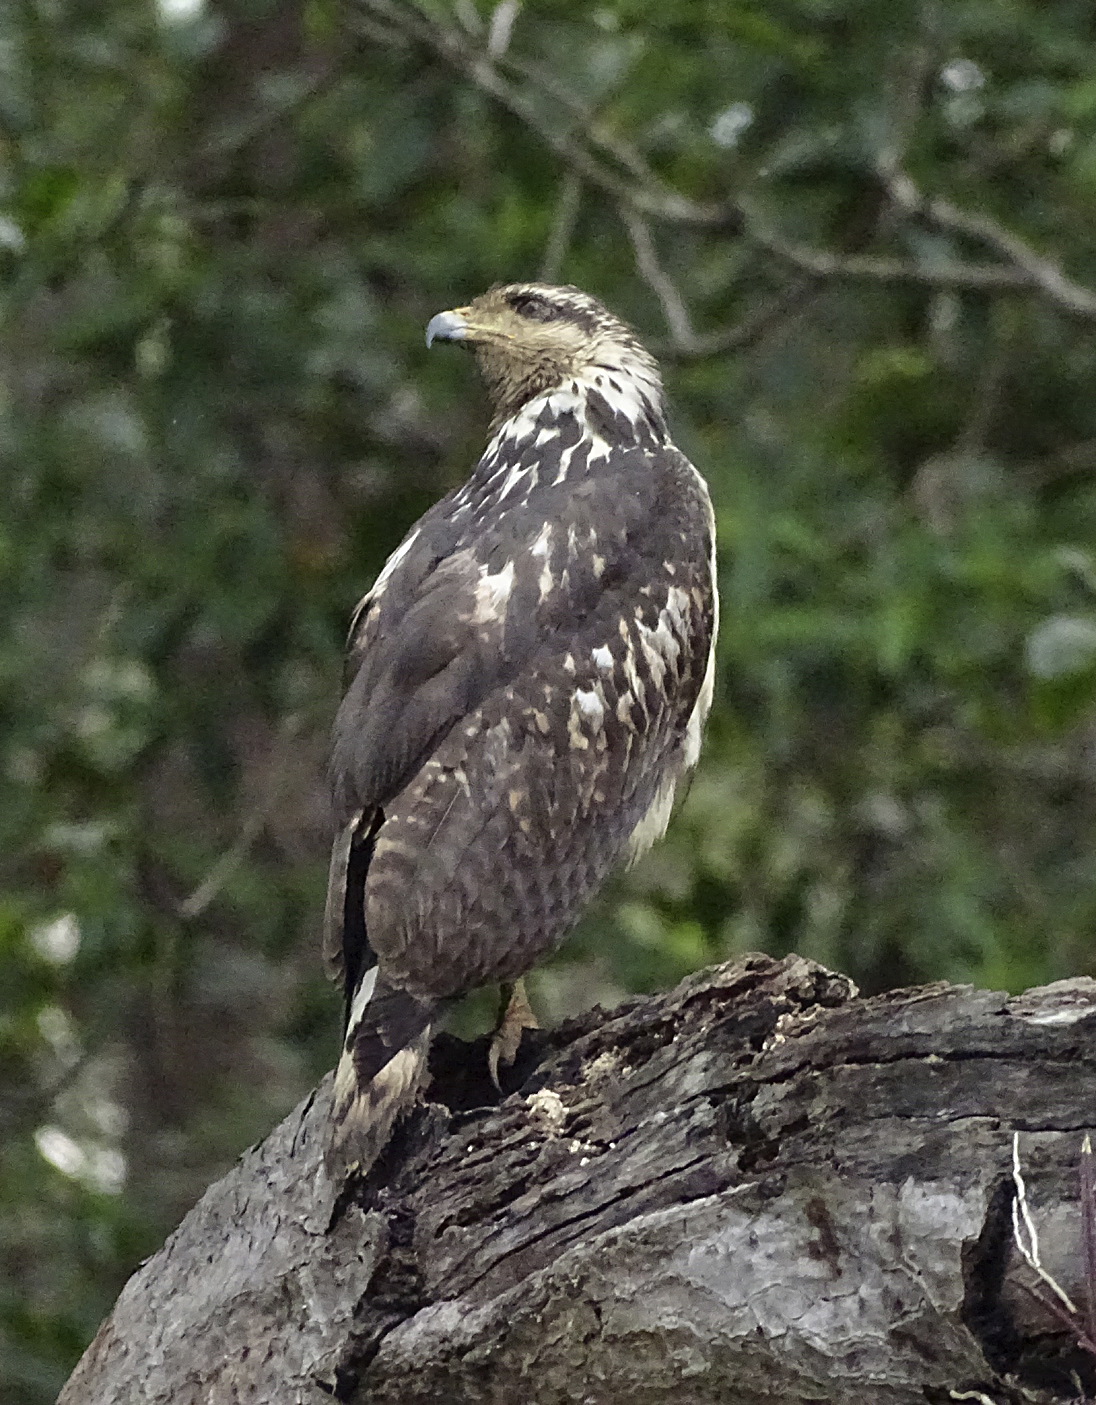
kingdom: Animalia
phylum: Chordata
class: Aves
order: Accipitriformes
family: Accipitridae
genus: Buteogallus
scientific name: Buteogallus anthracinus
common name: Common black hawk
